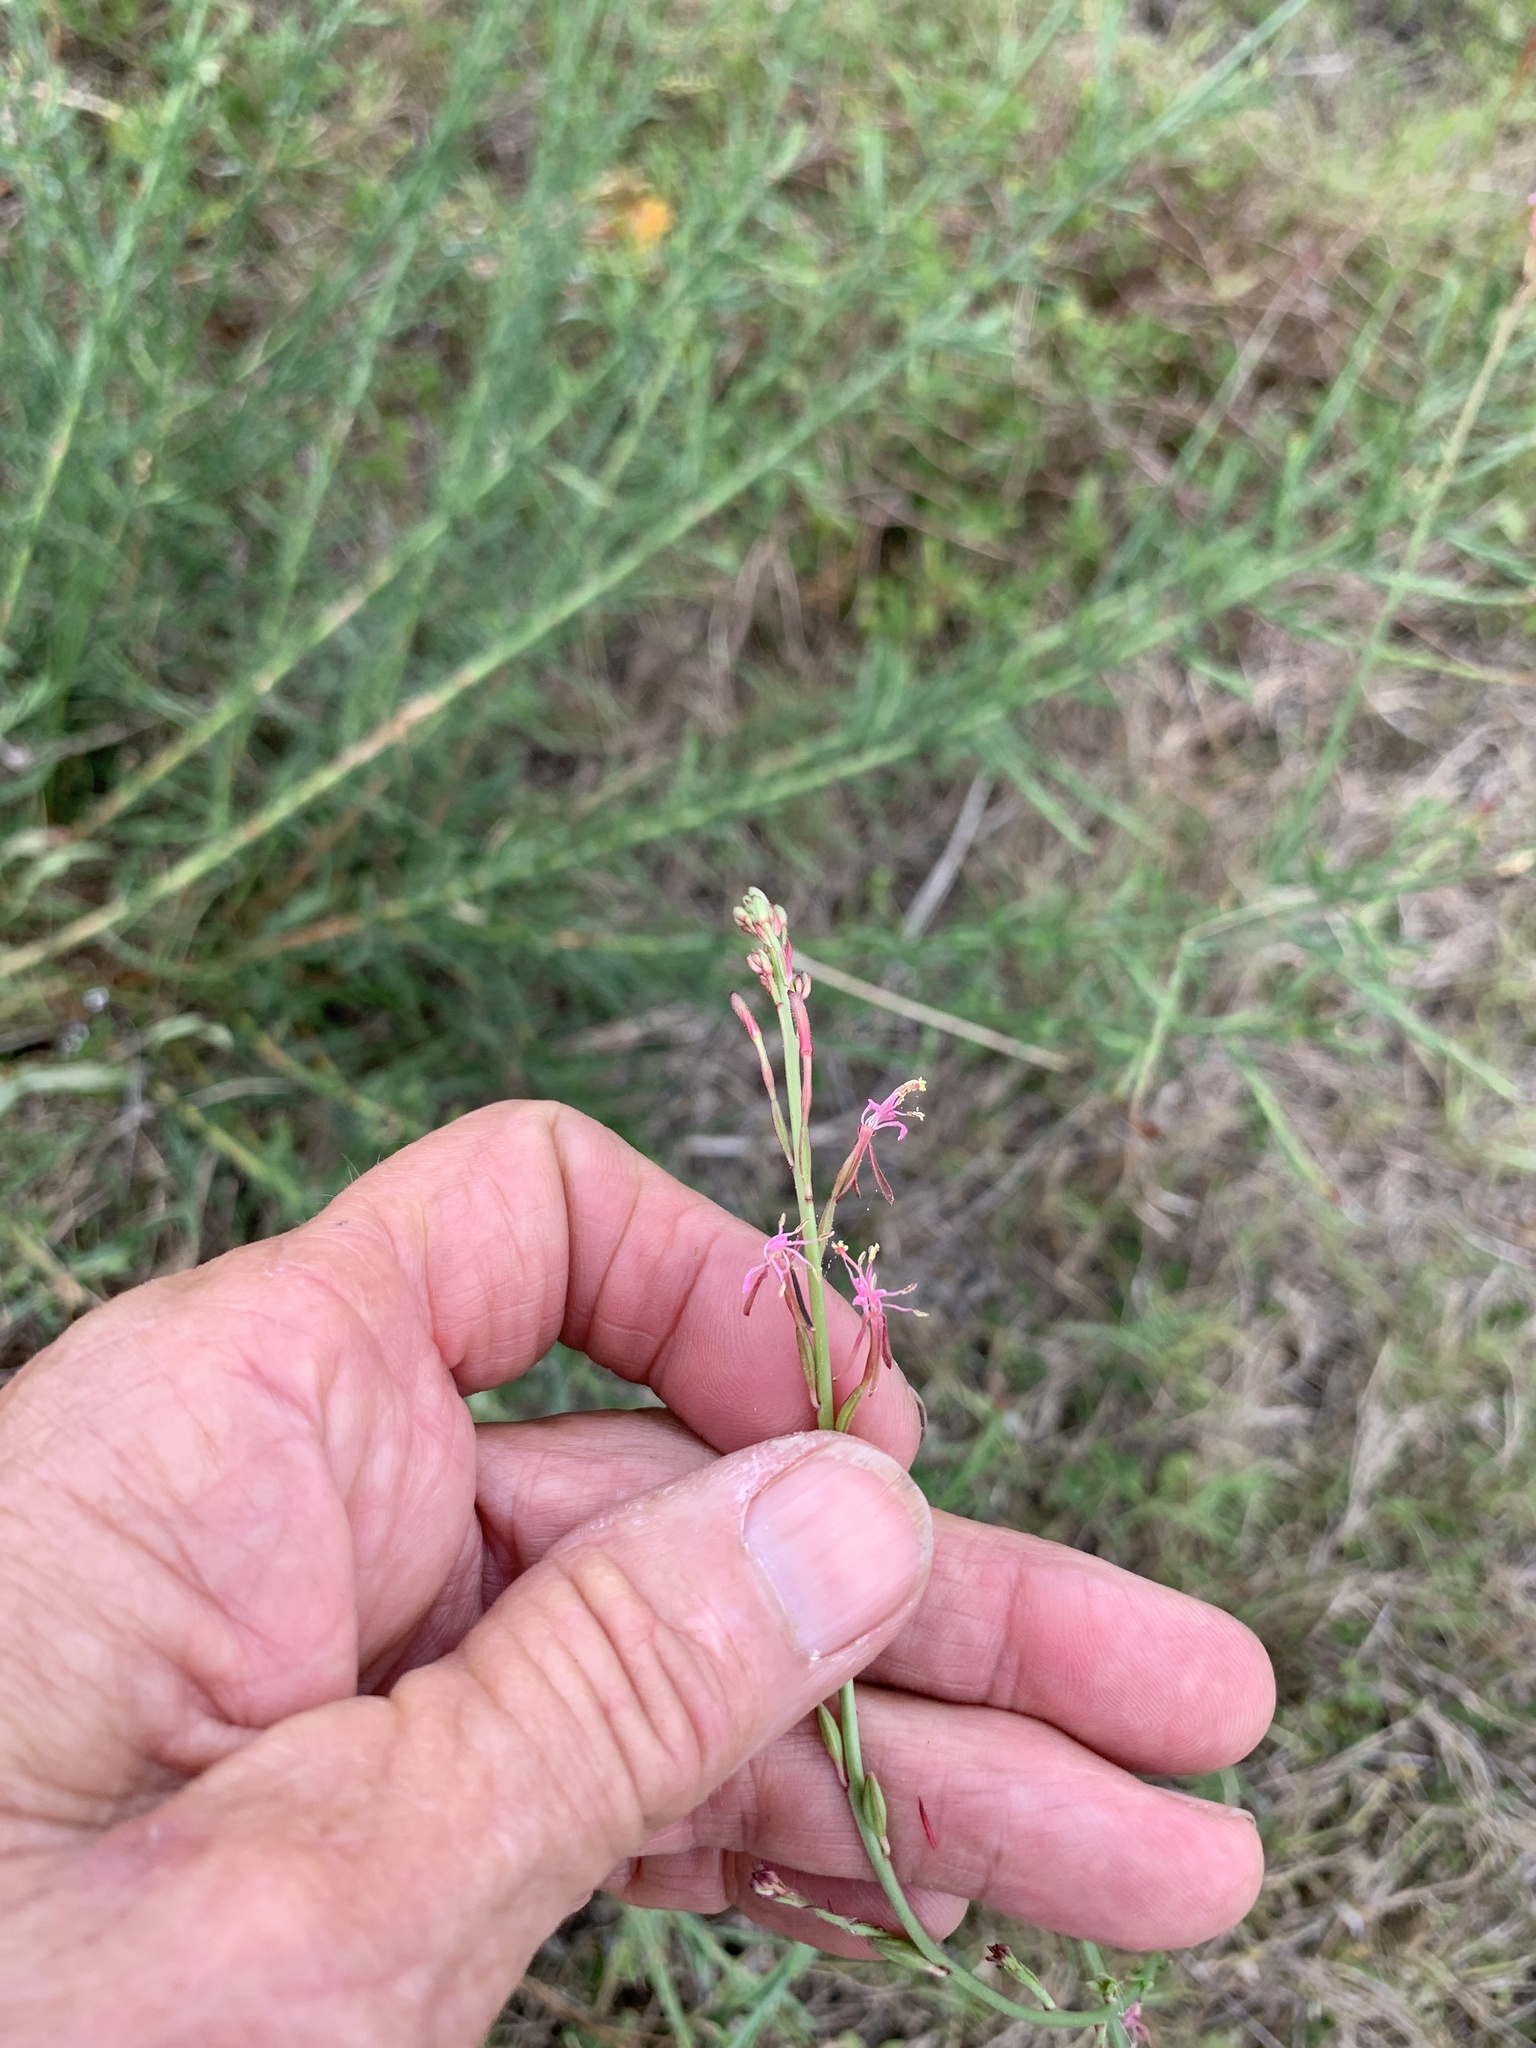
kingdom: Plantae
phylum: Tracheophyta
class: Magnoliopsida
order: Myrtales
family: Onagraceae
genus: Oenothera
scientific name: Oenothera simulans
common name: Southern beeblossom
